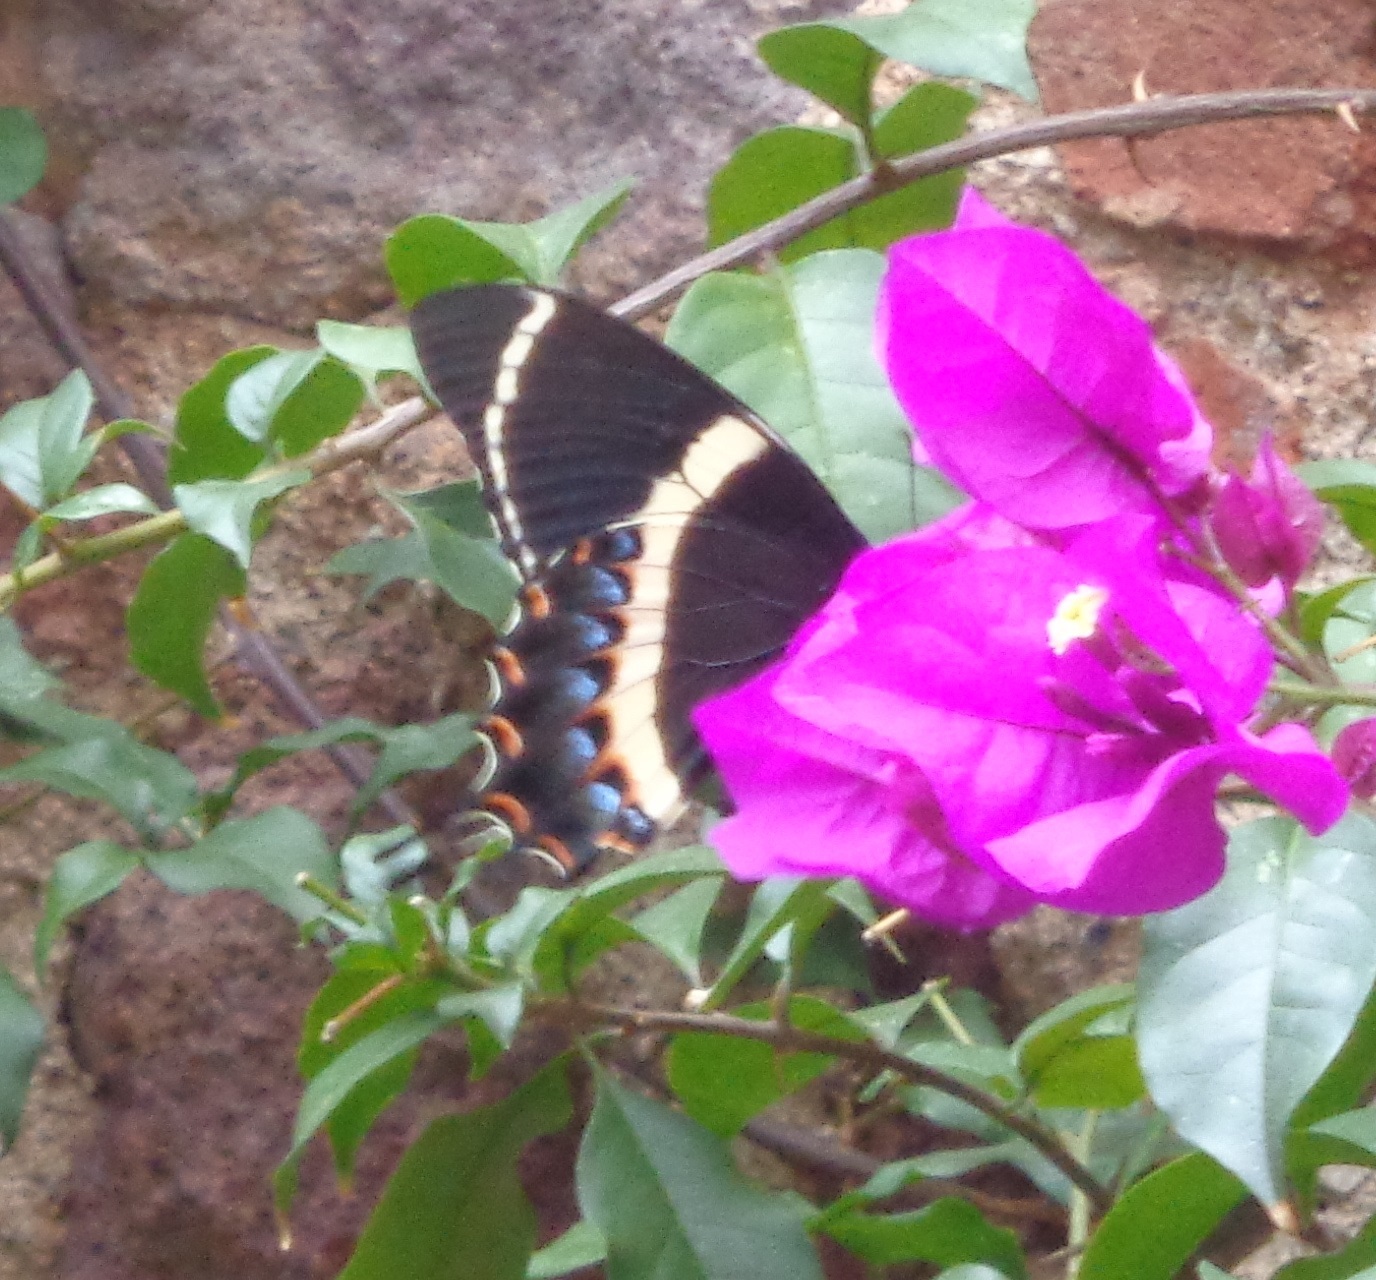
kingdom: Animalia
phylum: Arthropoda
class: Insecta
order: Lepidoptera
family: Papilionidae
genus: Papilio
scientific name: Papilio garamas
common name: Magnificent swallowtail
